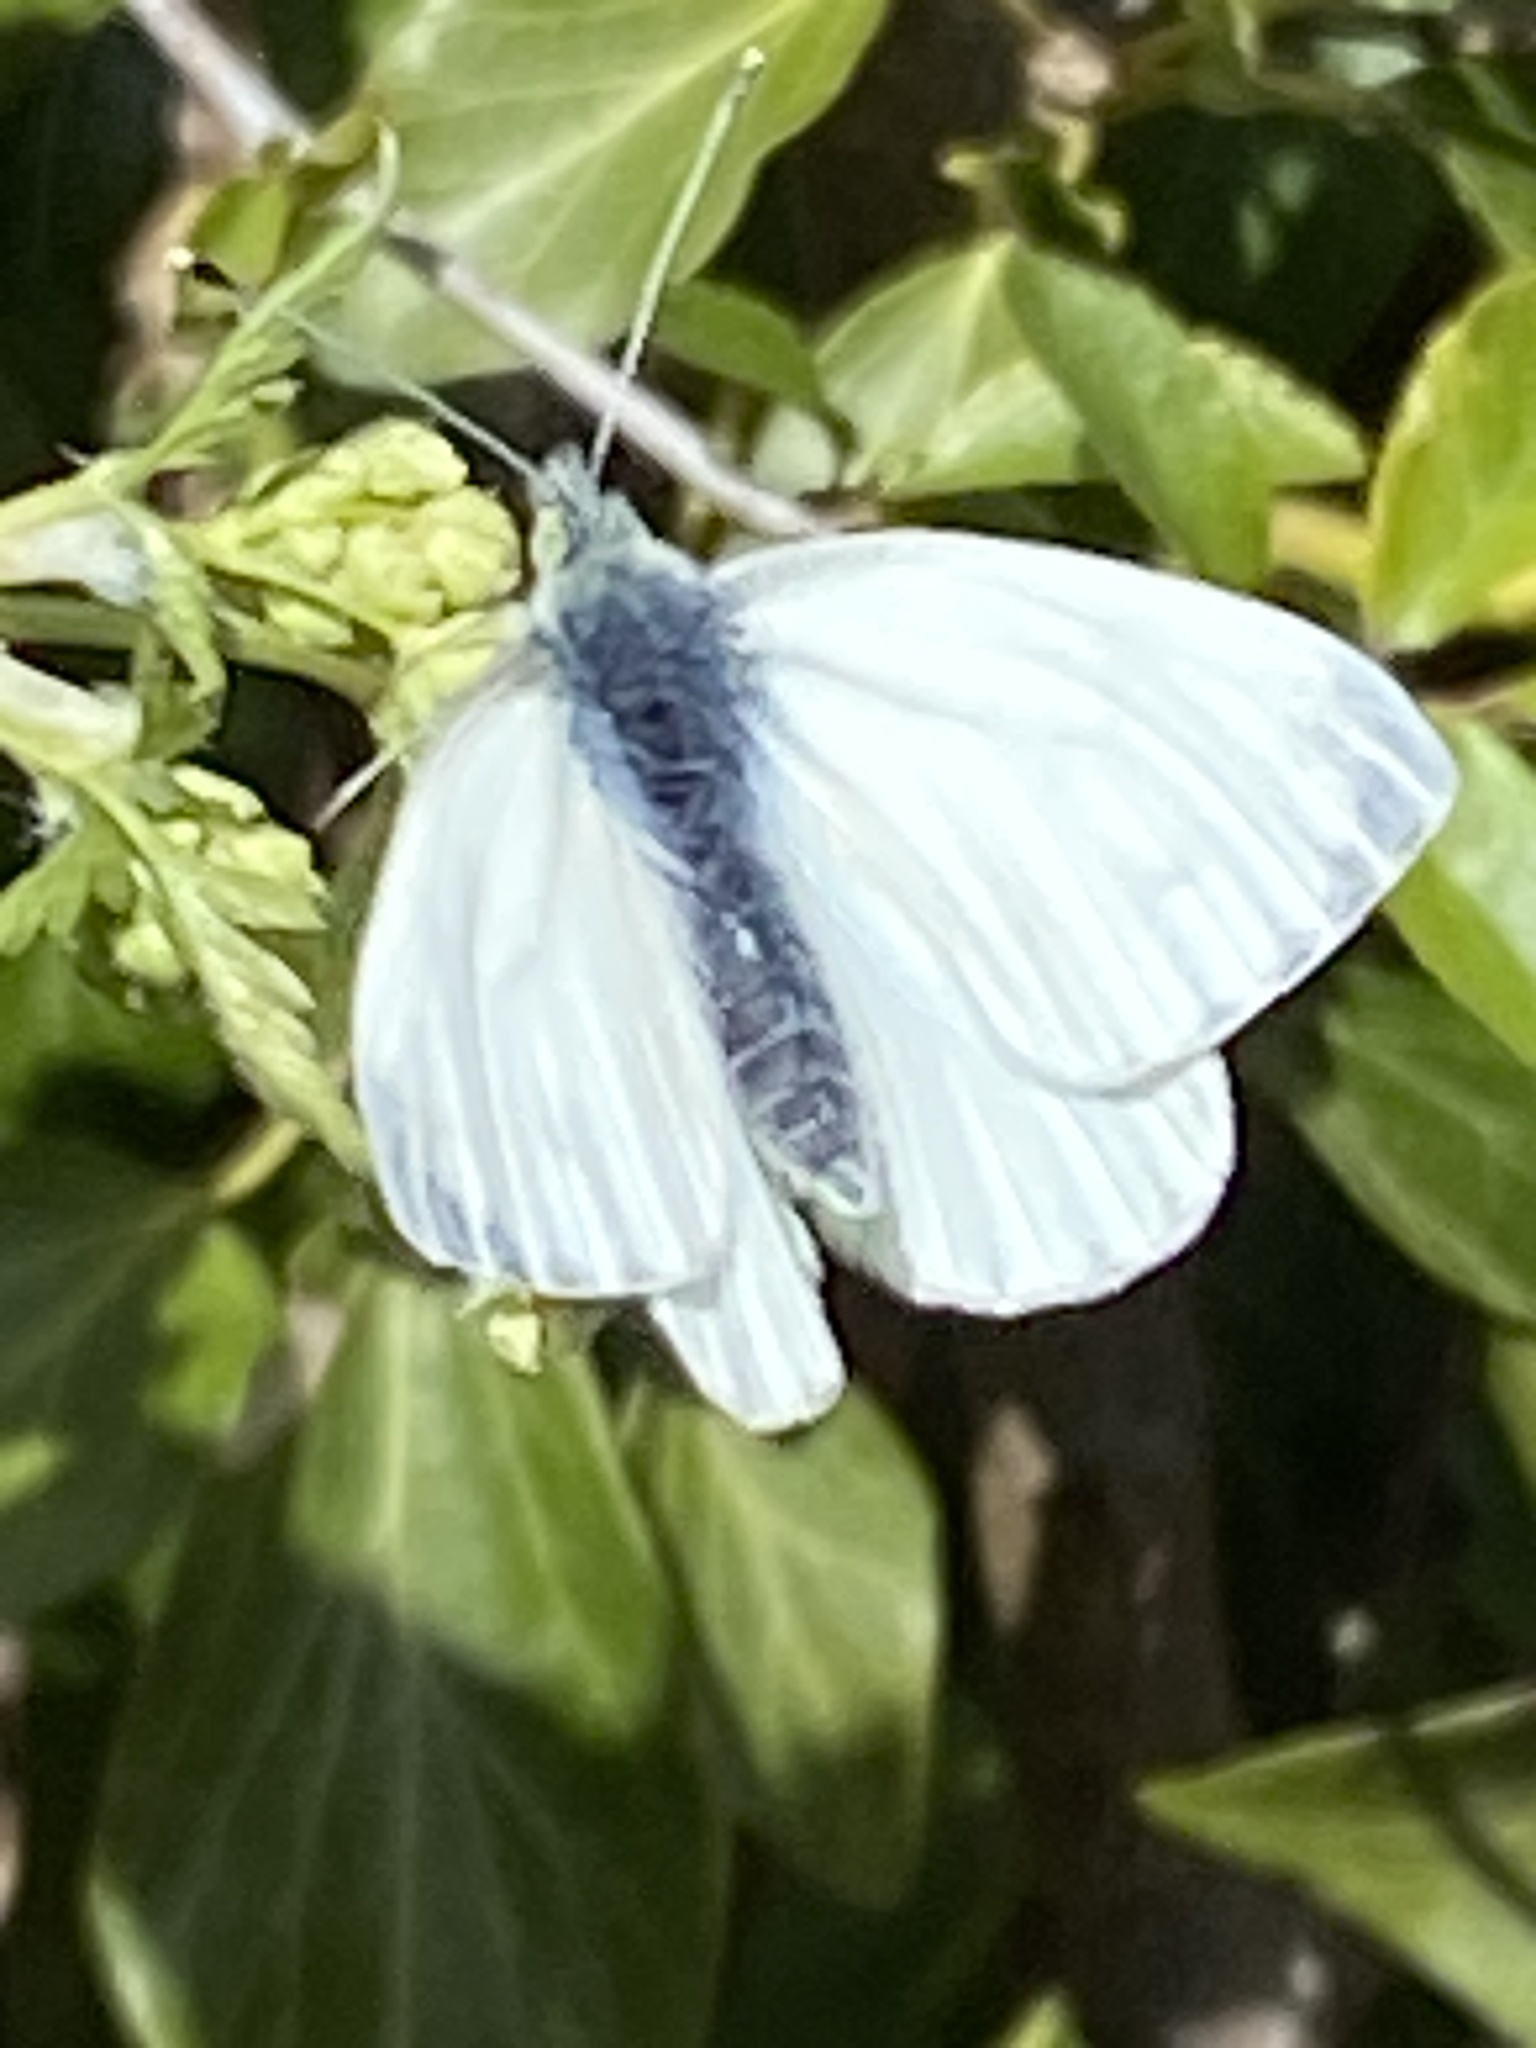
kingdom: Animalia
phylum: Arthropoda
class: Insecta
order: Lepidoptera
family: Pieridae
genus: Pieris
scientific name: Pieris napi
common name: Green-veined white
